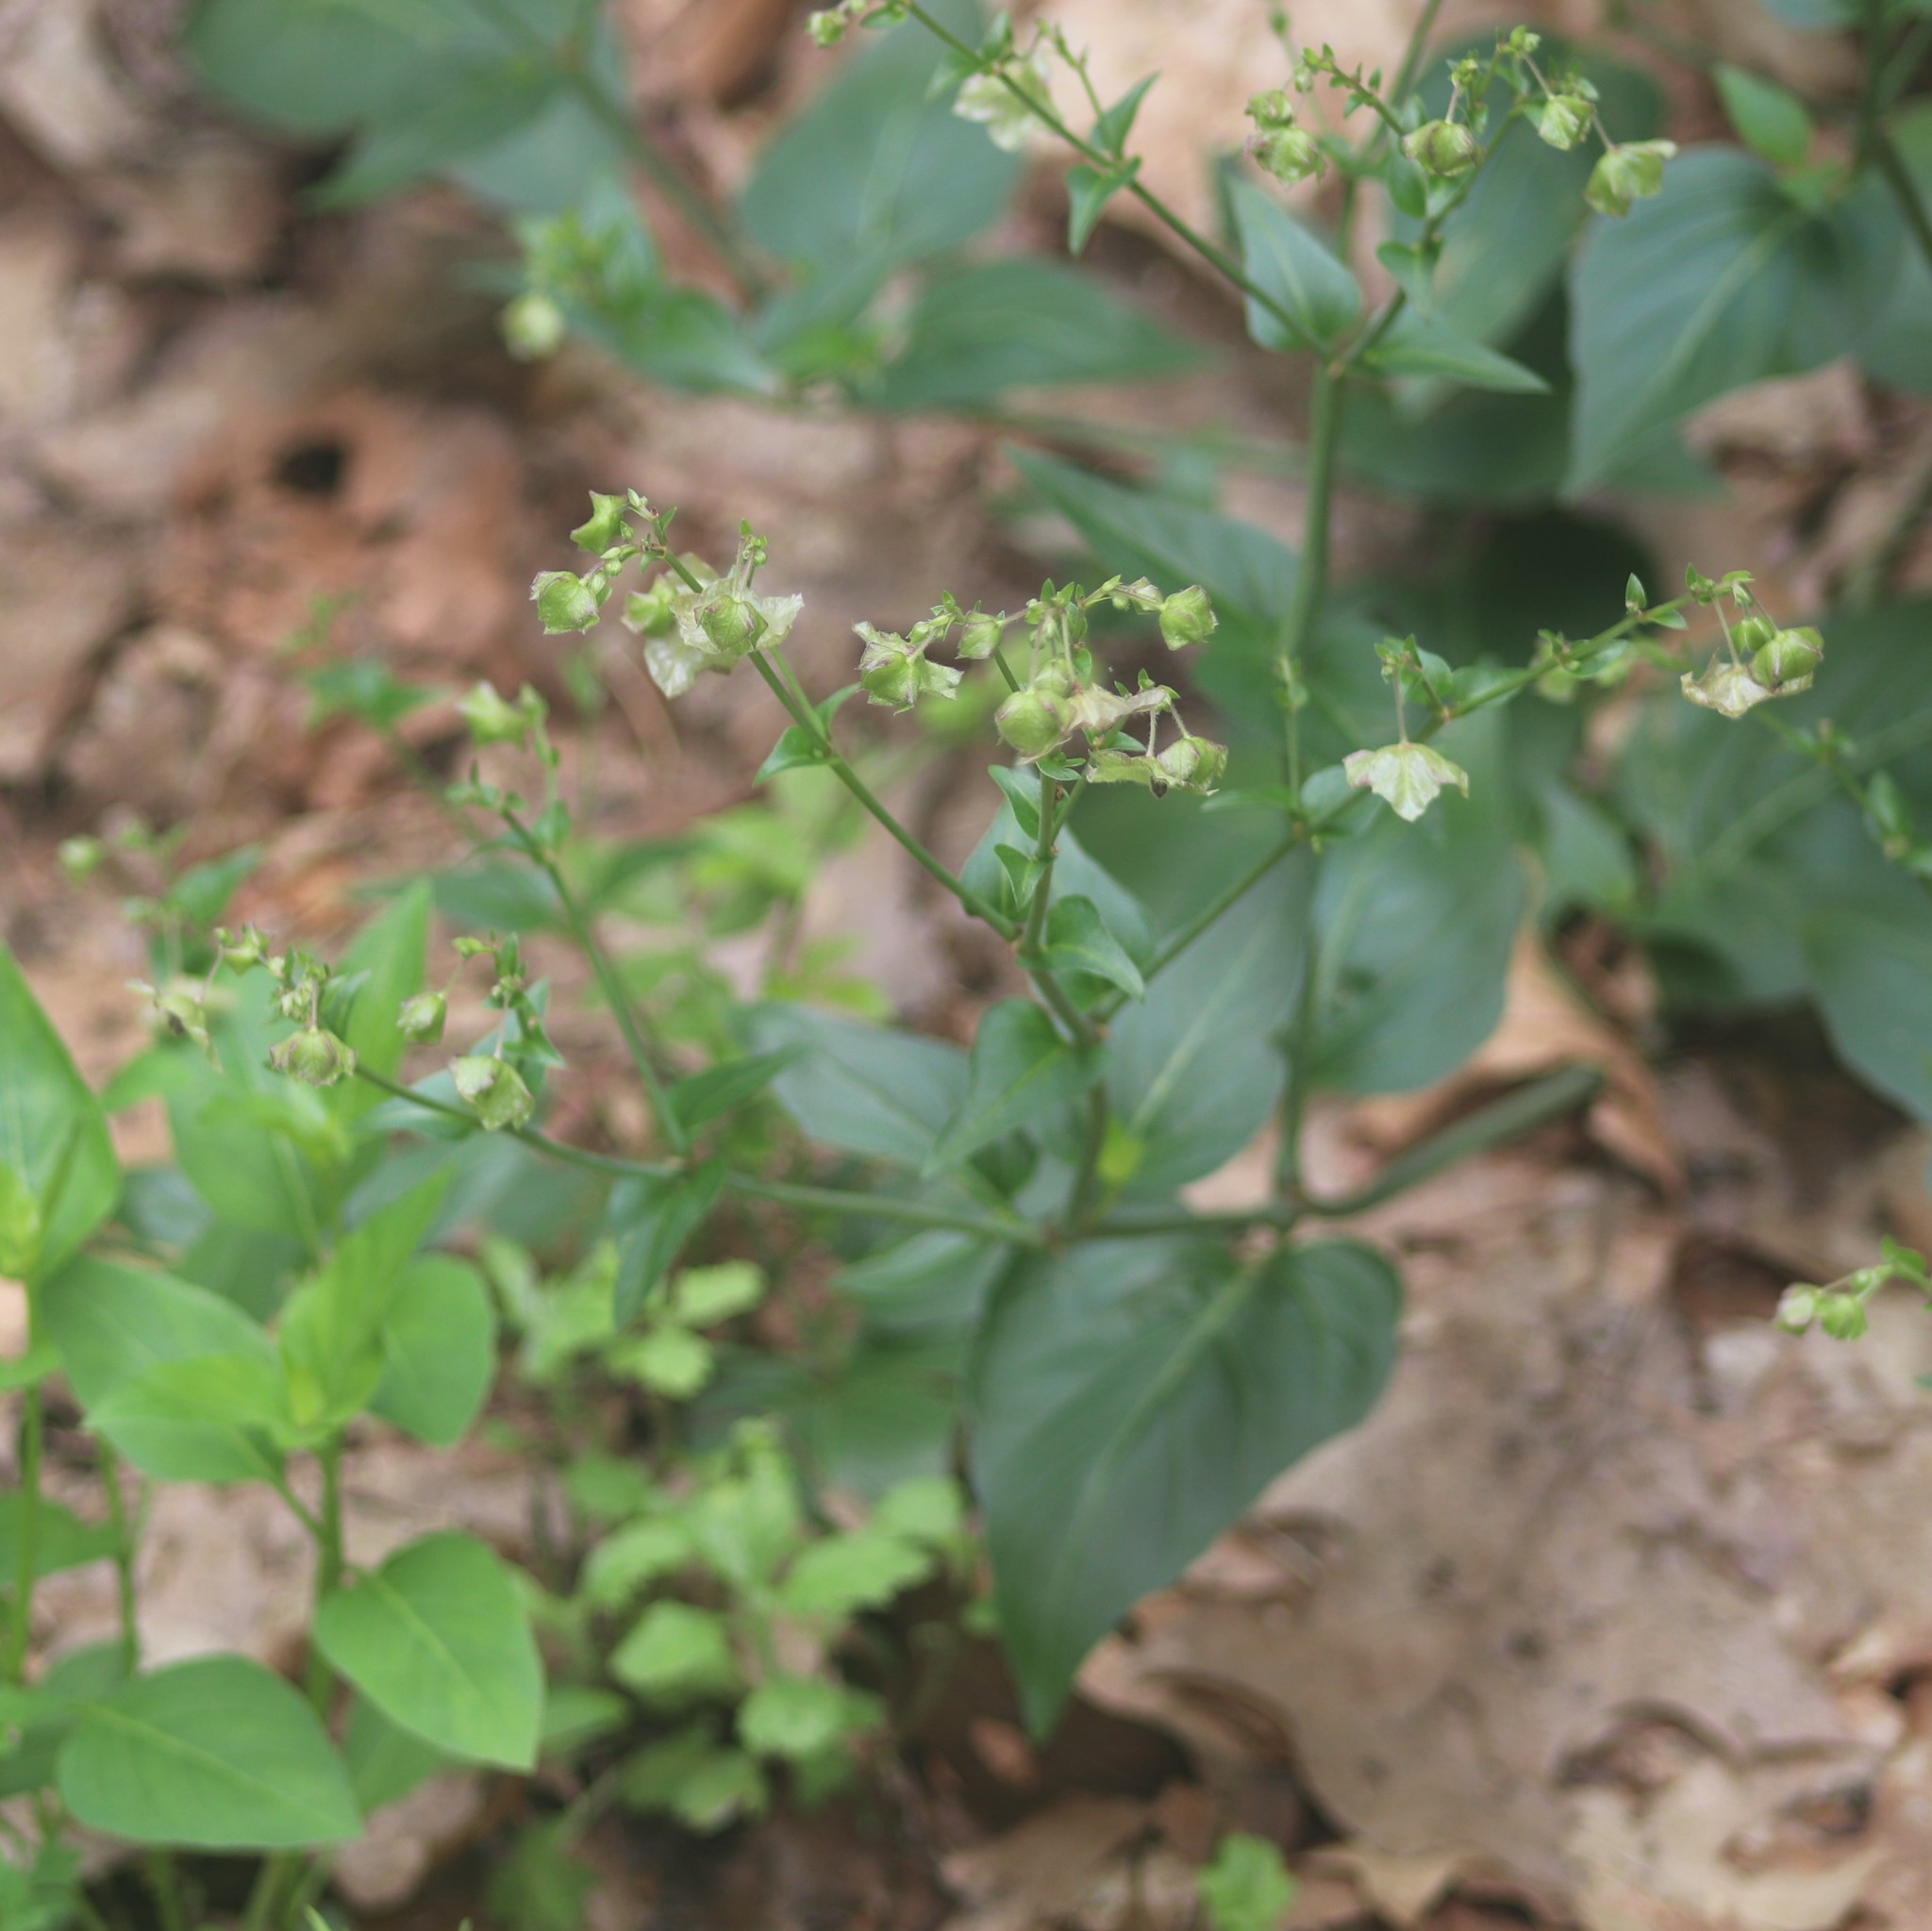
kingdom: Plantae
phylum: Tracheophyta
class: Magnoliopsida
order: Caryophyllales
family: Nyctaginaceae
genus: Mirabilis
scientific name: Mirabilis nyctaginea
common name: Umbrella wort
